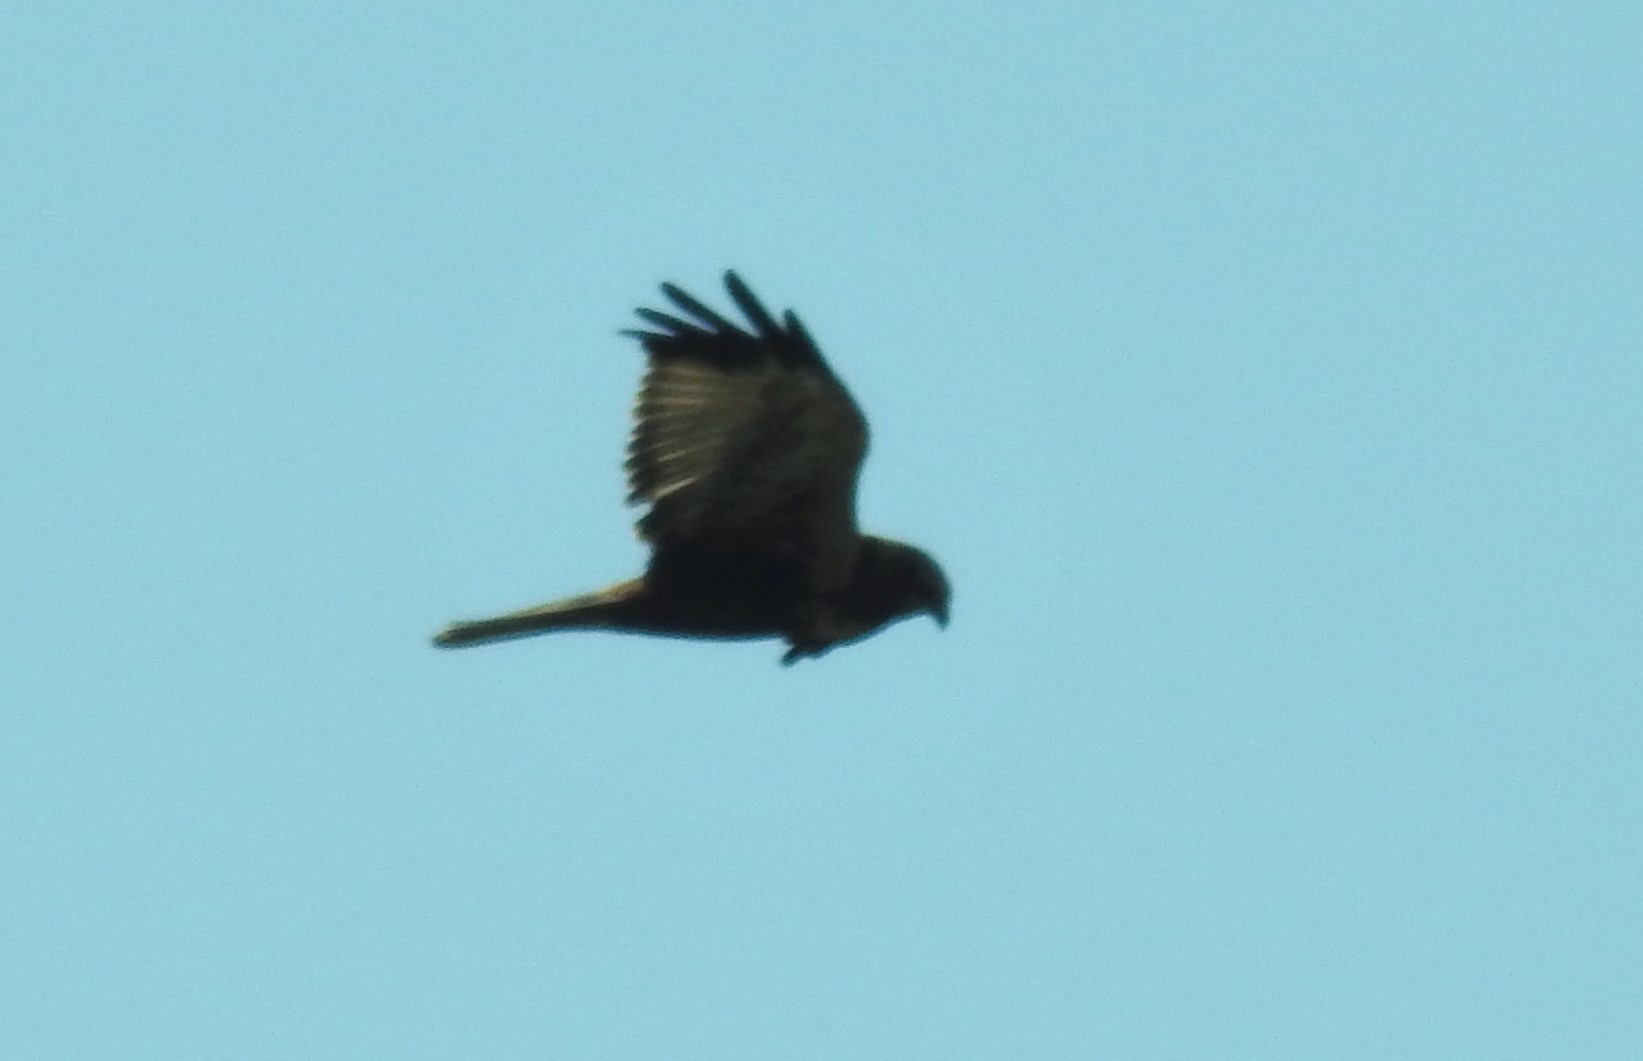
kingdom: Animalia
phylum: Chordata
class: Aves
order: Accipitriformes
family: Accipitridae
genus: Circus
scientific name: Circus aeruginosus
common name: Western marsh harrier
